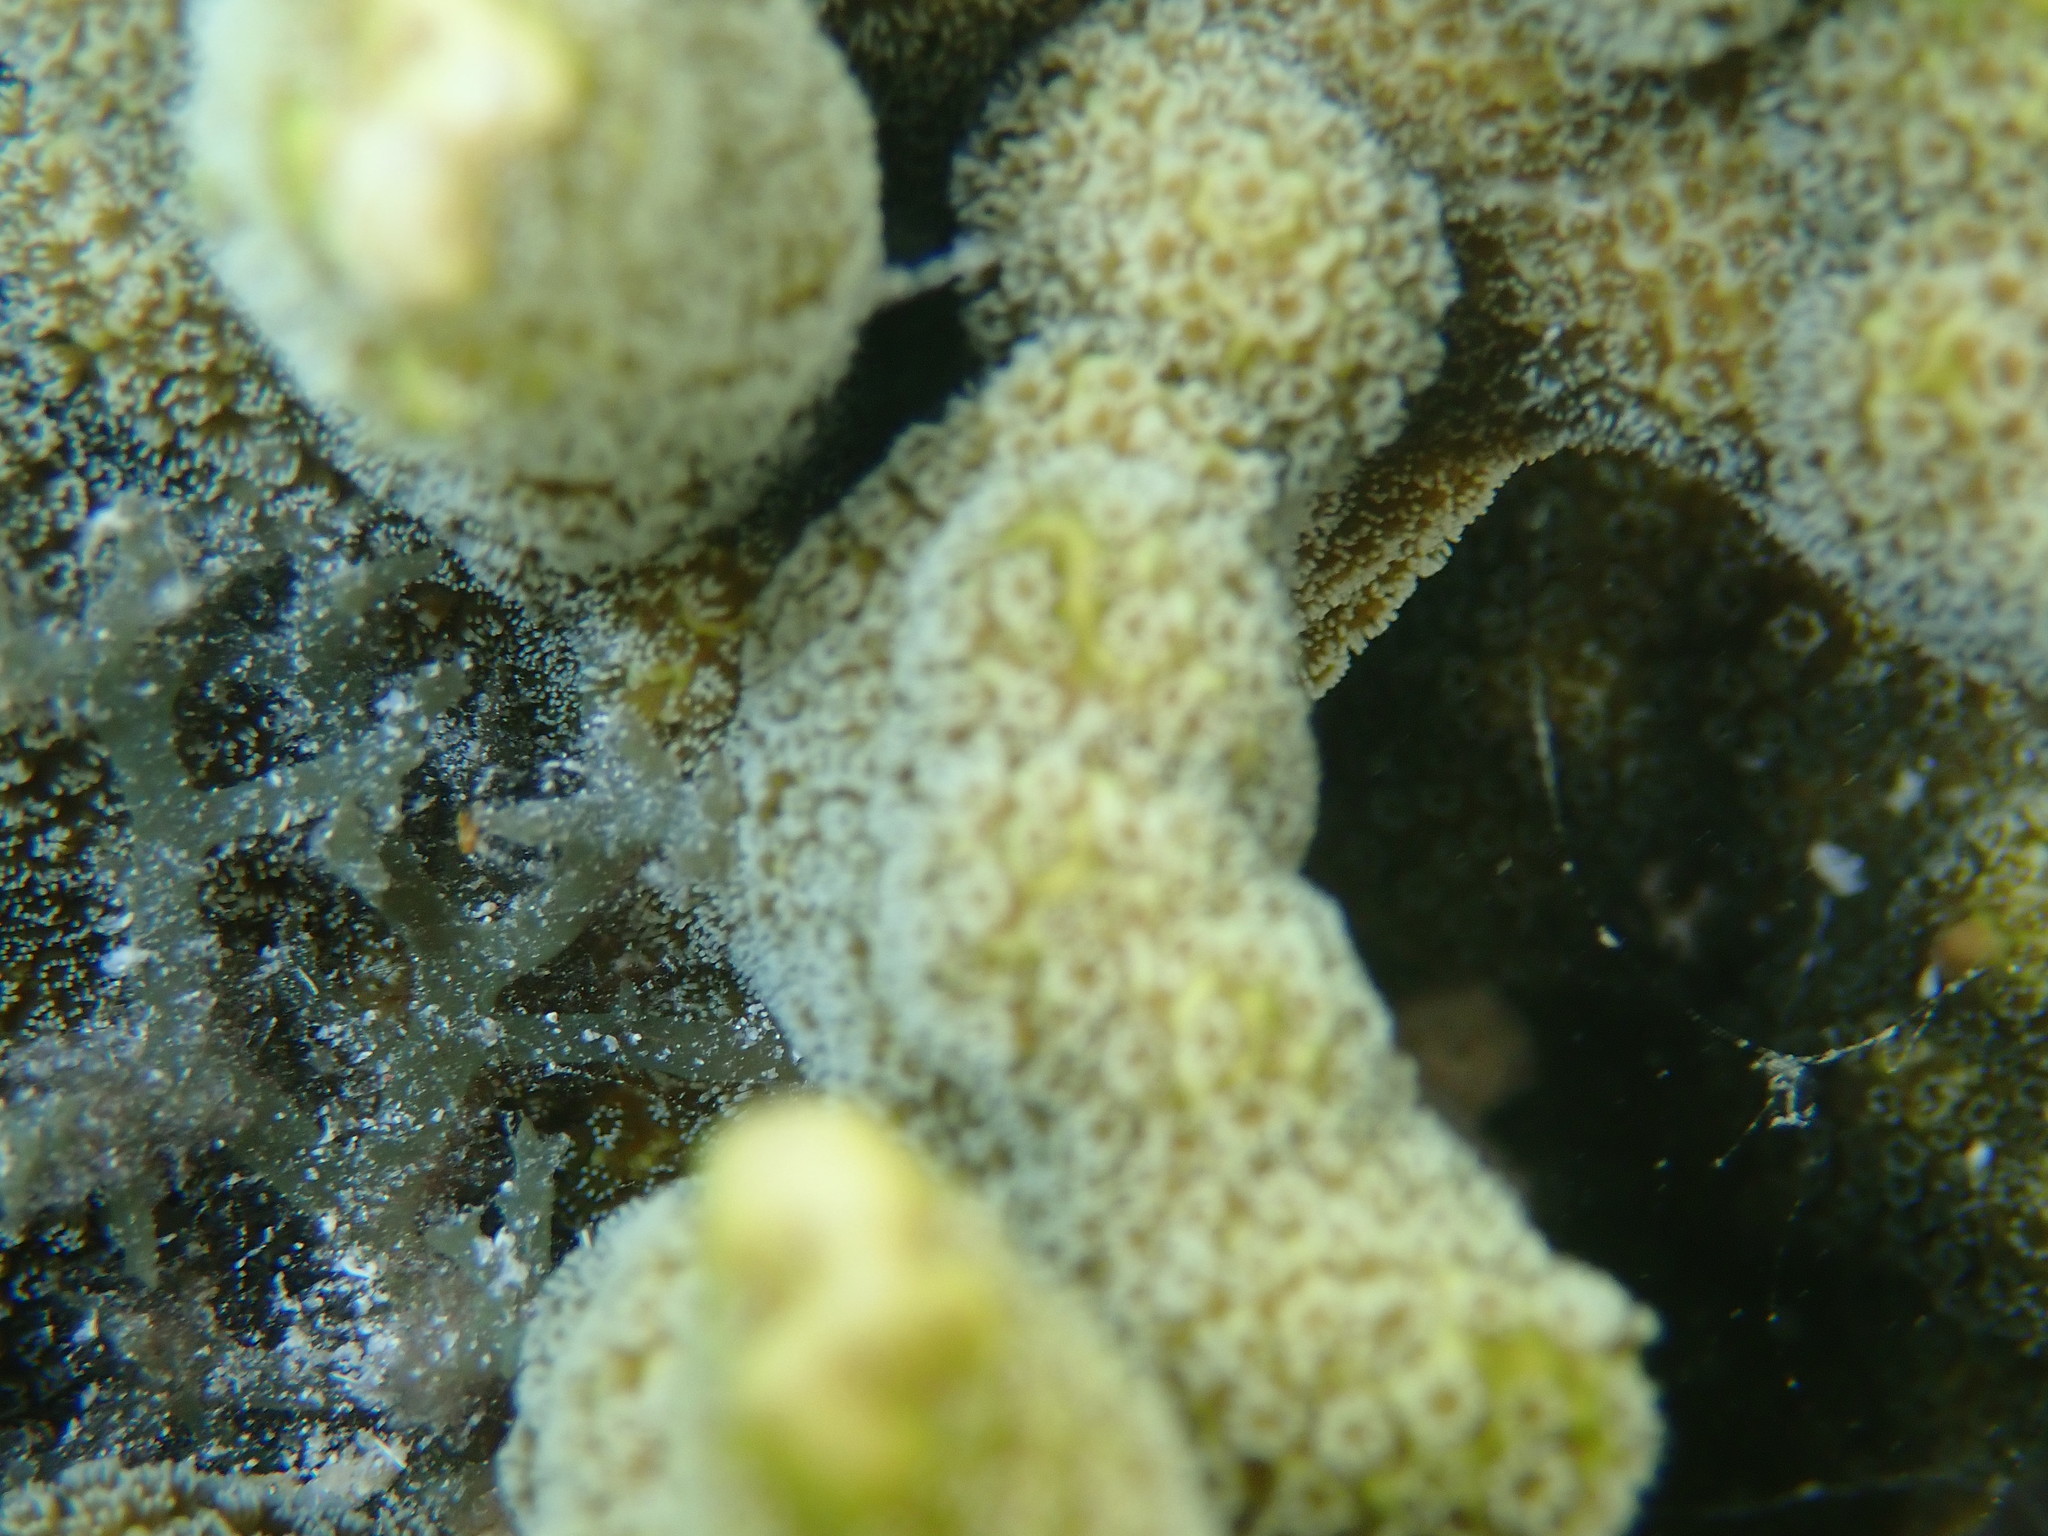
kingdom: Animalia
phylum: Cnidaria
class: Anthozoa
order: Scleractinia
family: Acroporidae
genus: Montipora
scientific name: Montipora digitata
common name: Pore coral
